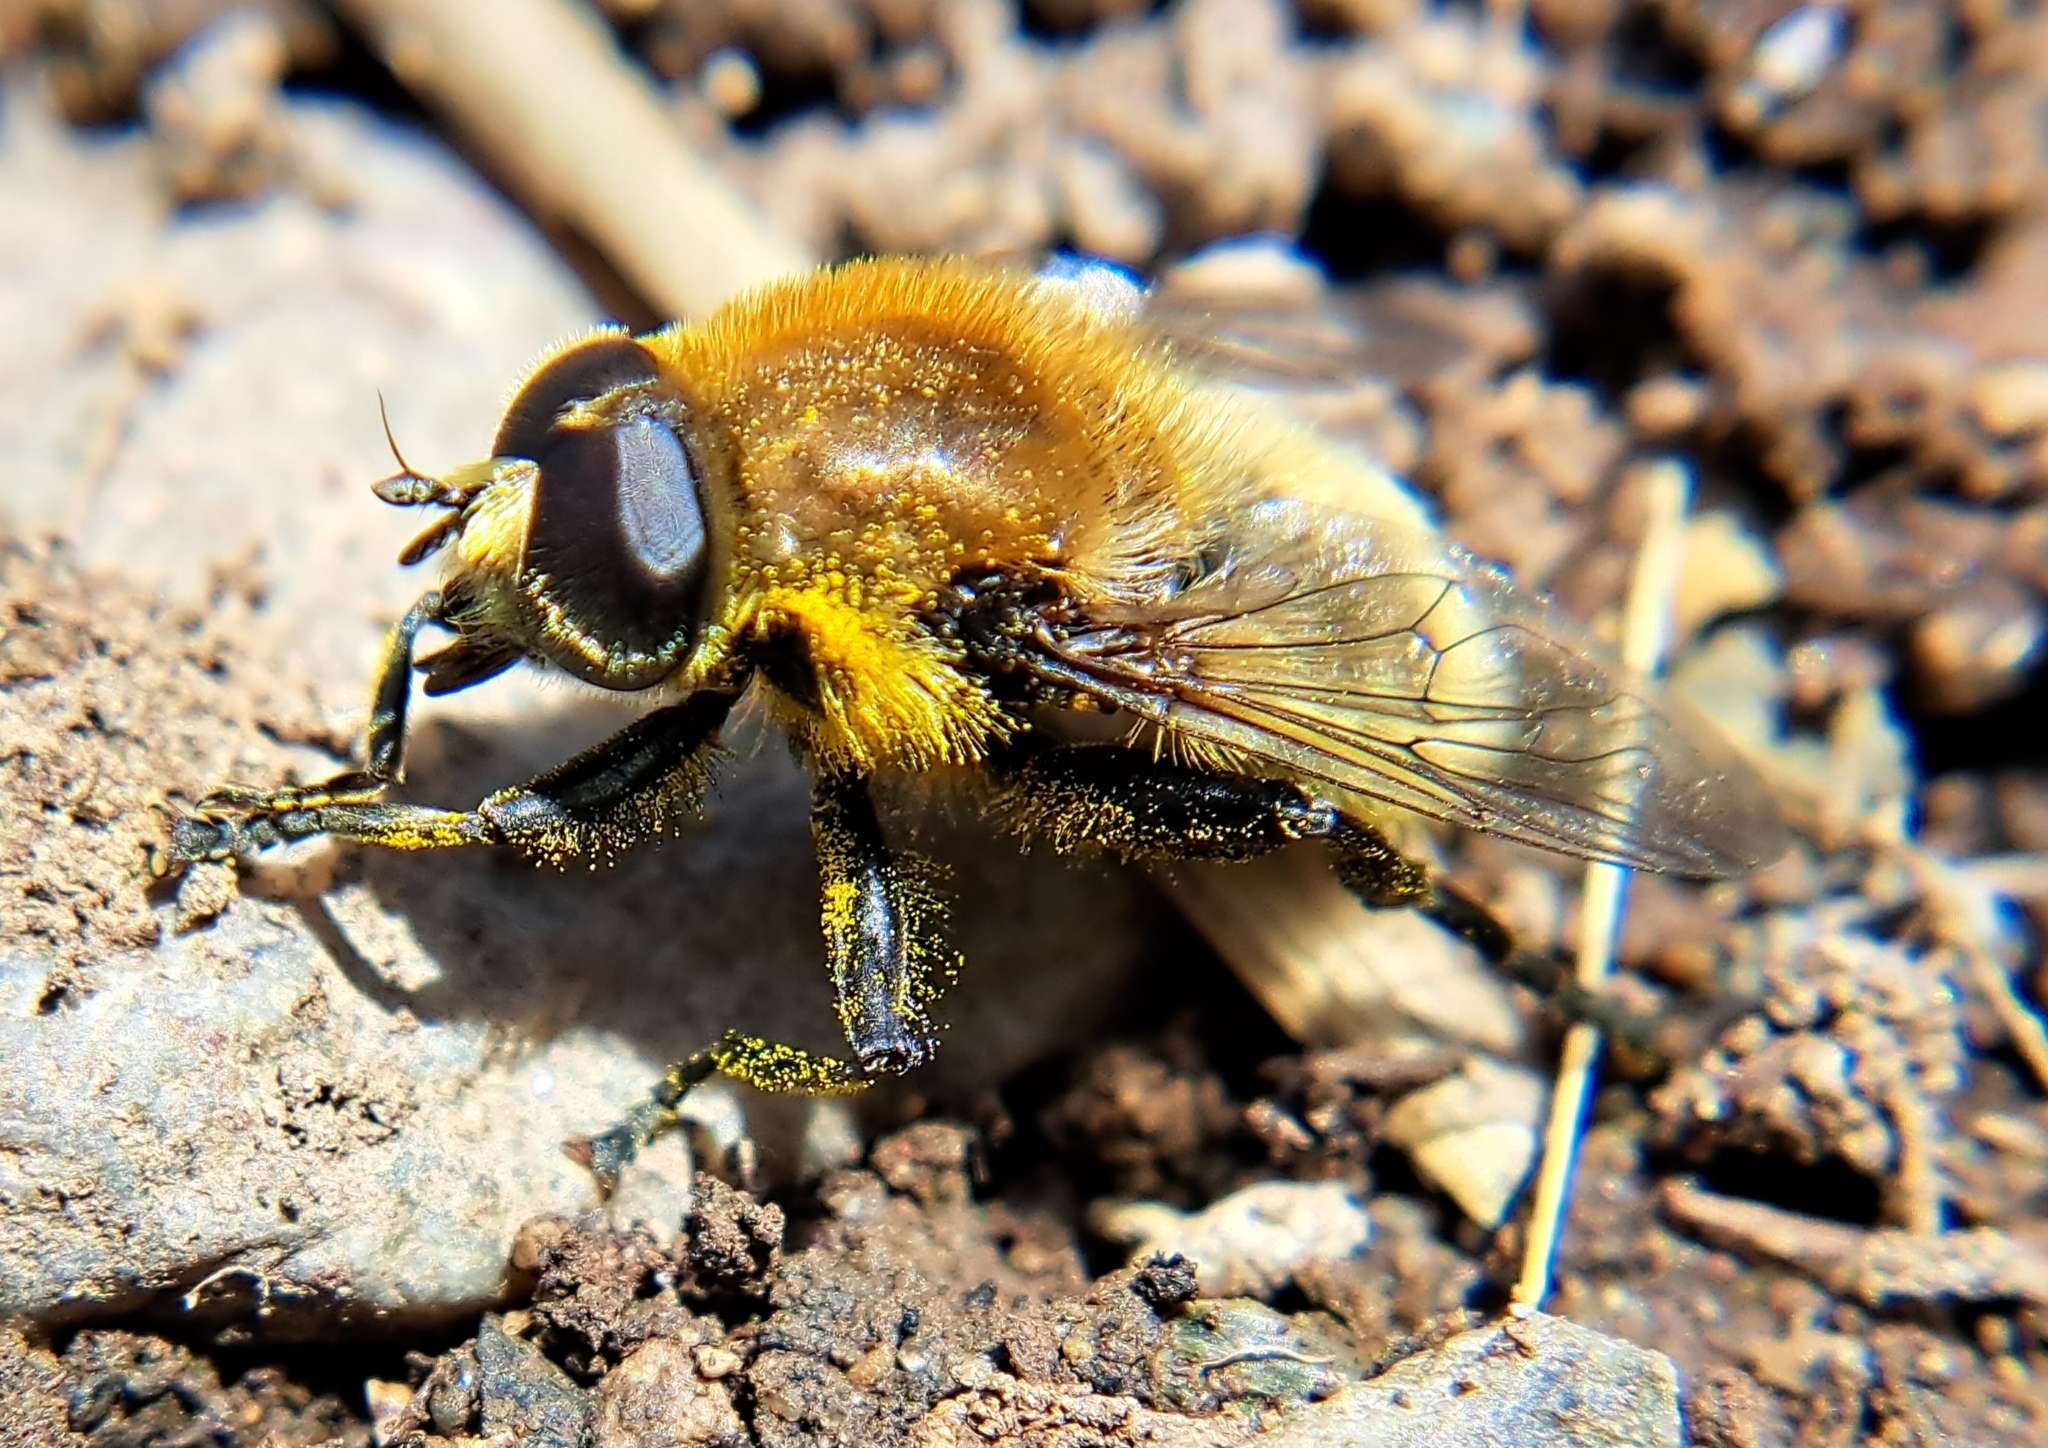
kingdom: Animalia
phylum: Arthropoda
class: Insecta
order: Diptera
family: Syrphidae
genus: Merodon
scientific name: Merodon equestris
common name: Greater bulb-fly
